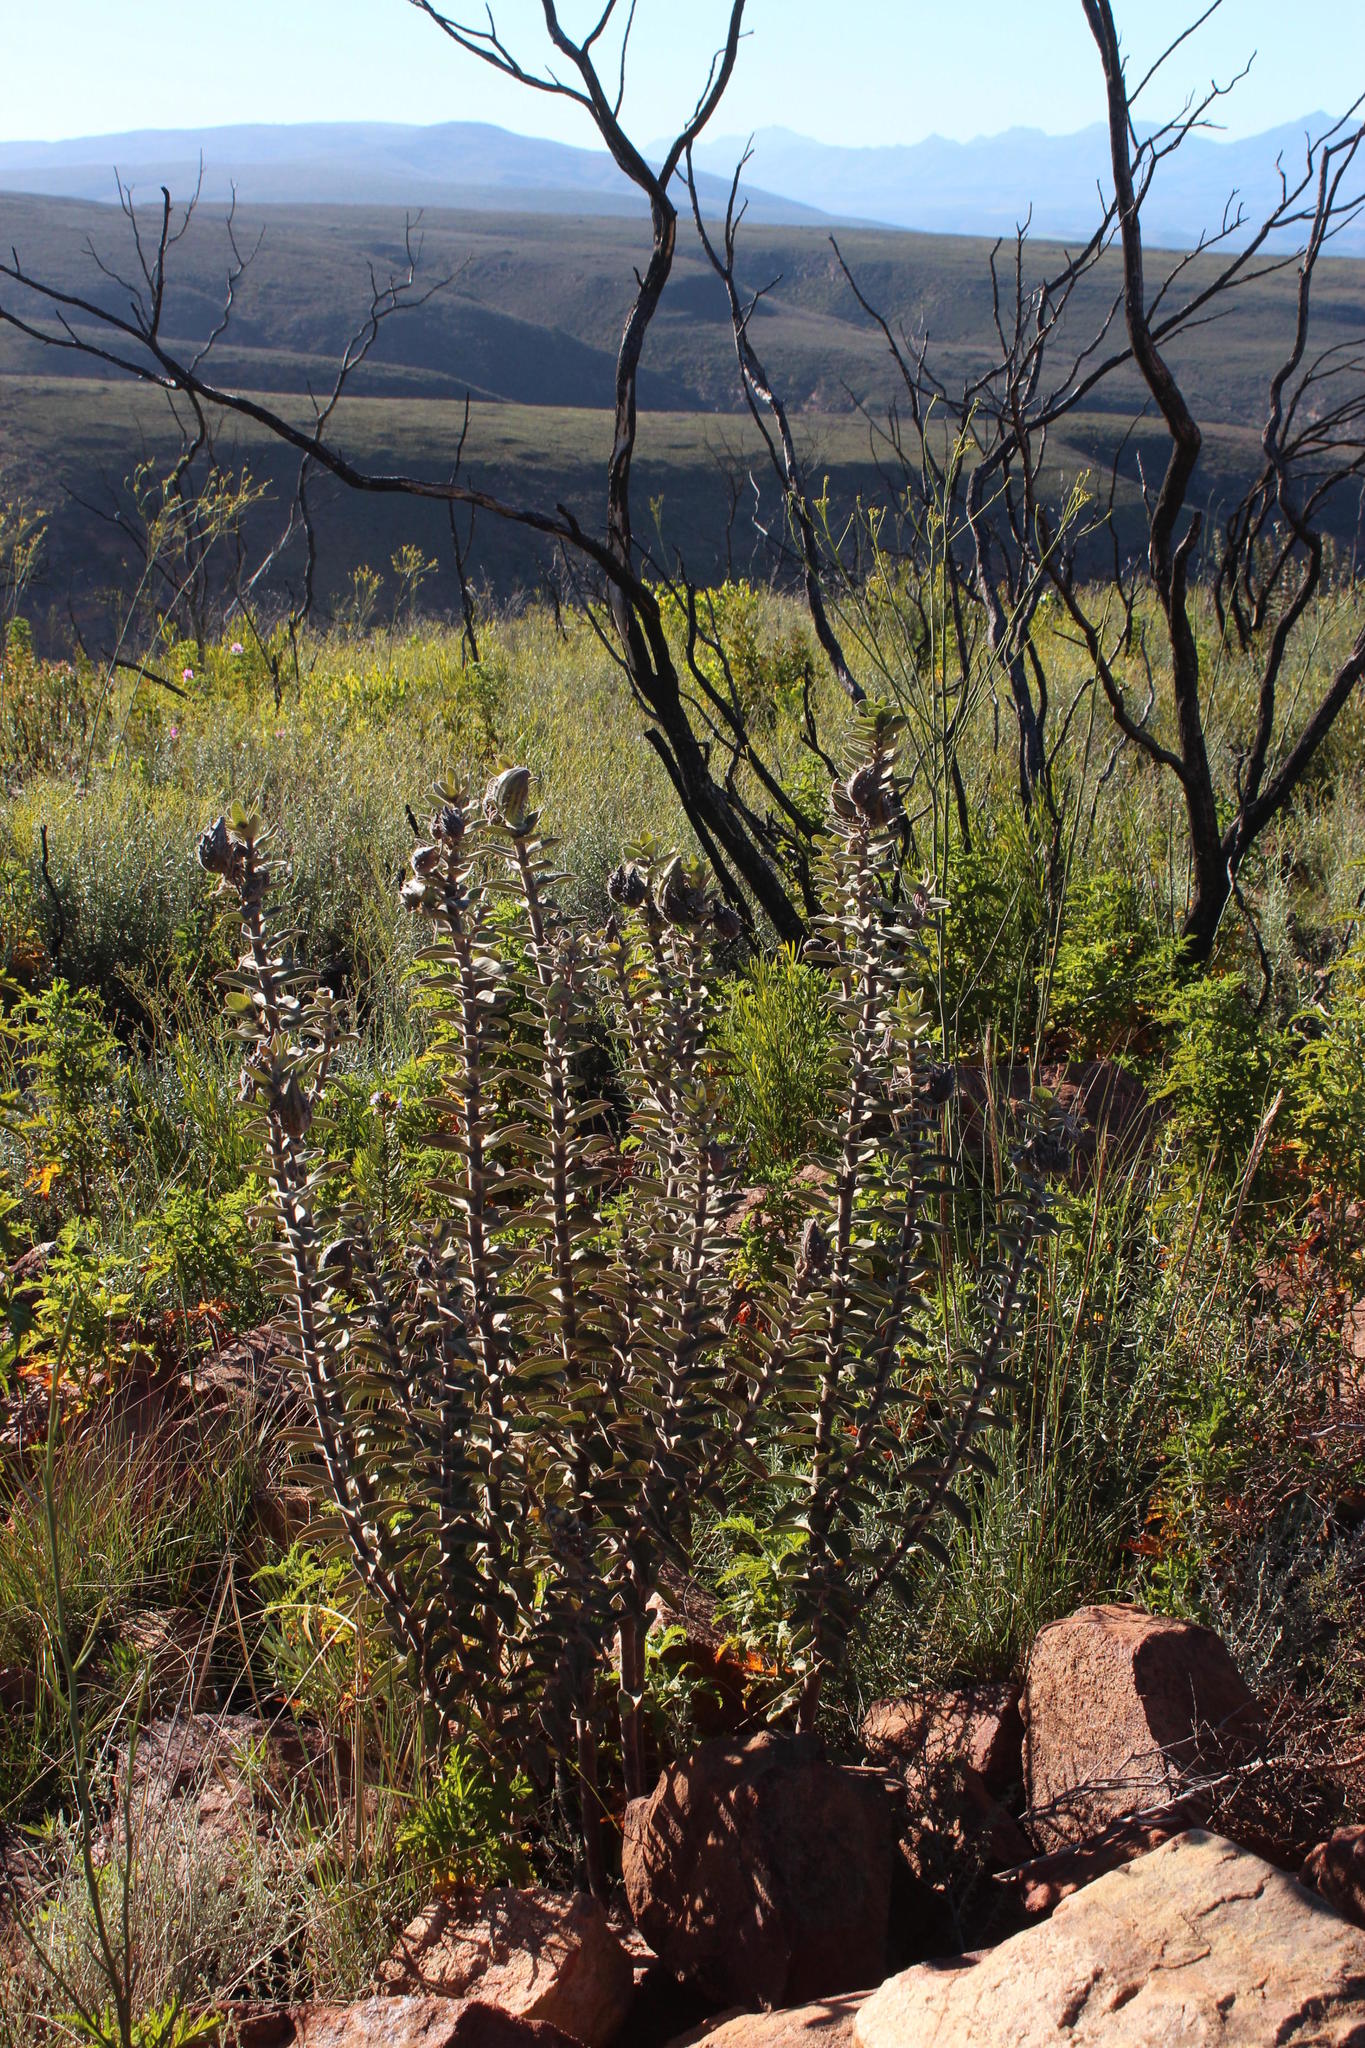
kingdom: Plantae
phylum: Tracheophyta
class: Magnoliopsida
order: Gentianales
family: Apocynaceae
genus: Gomphocarpus
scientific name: Gomphocarpus cancellatus
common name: Wild cotton
